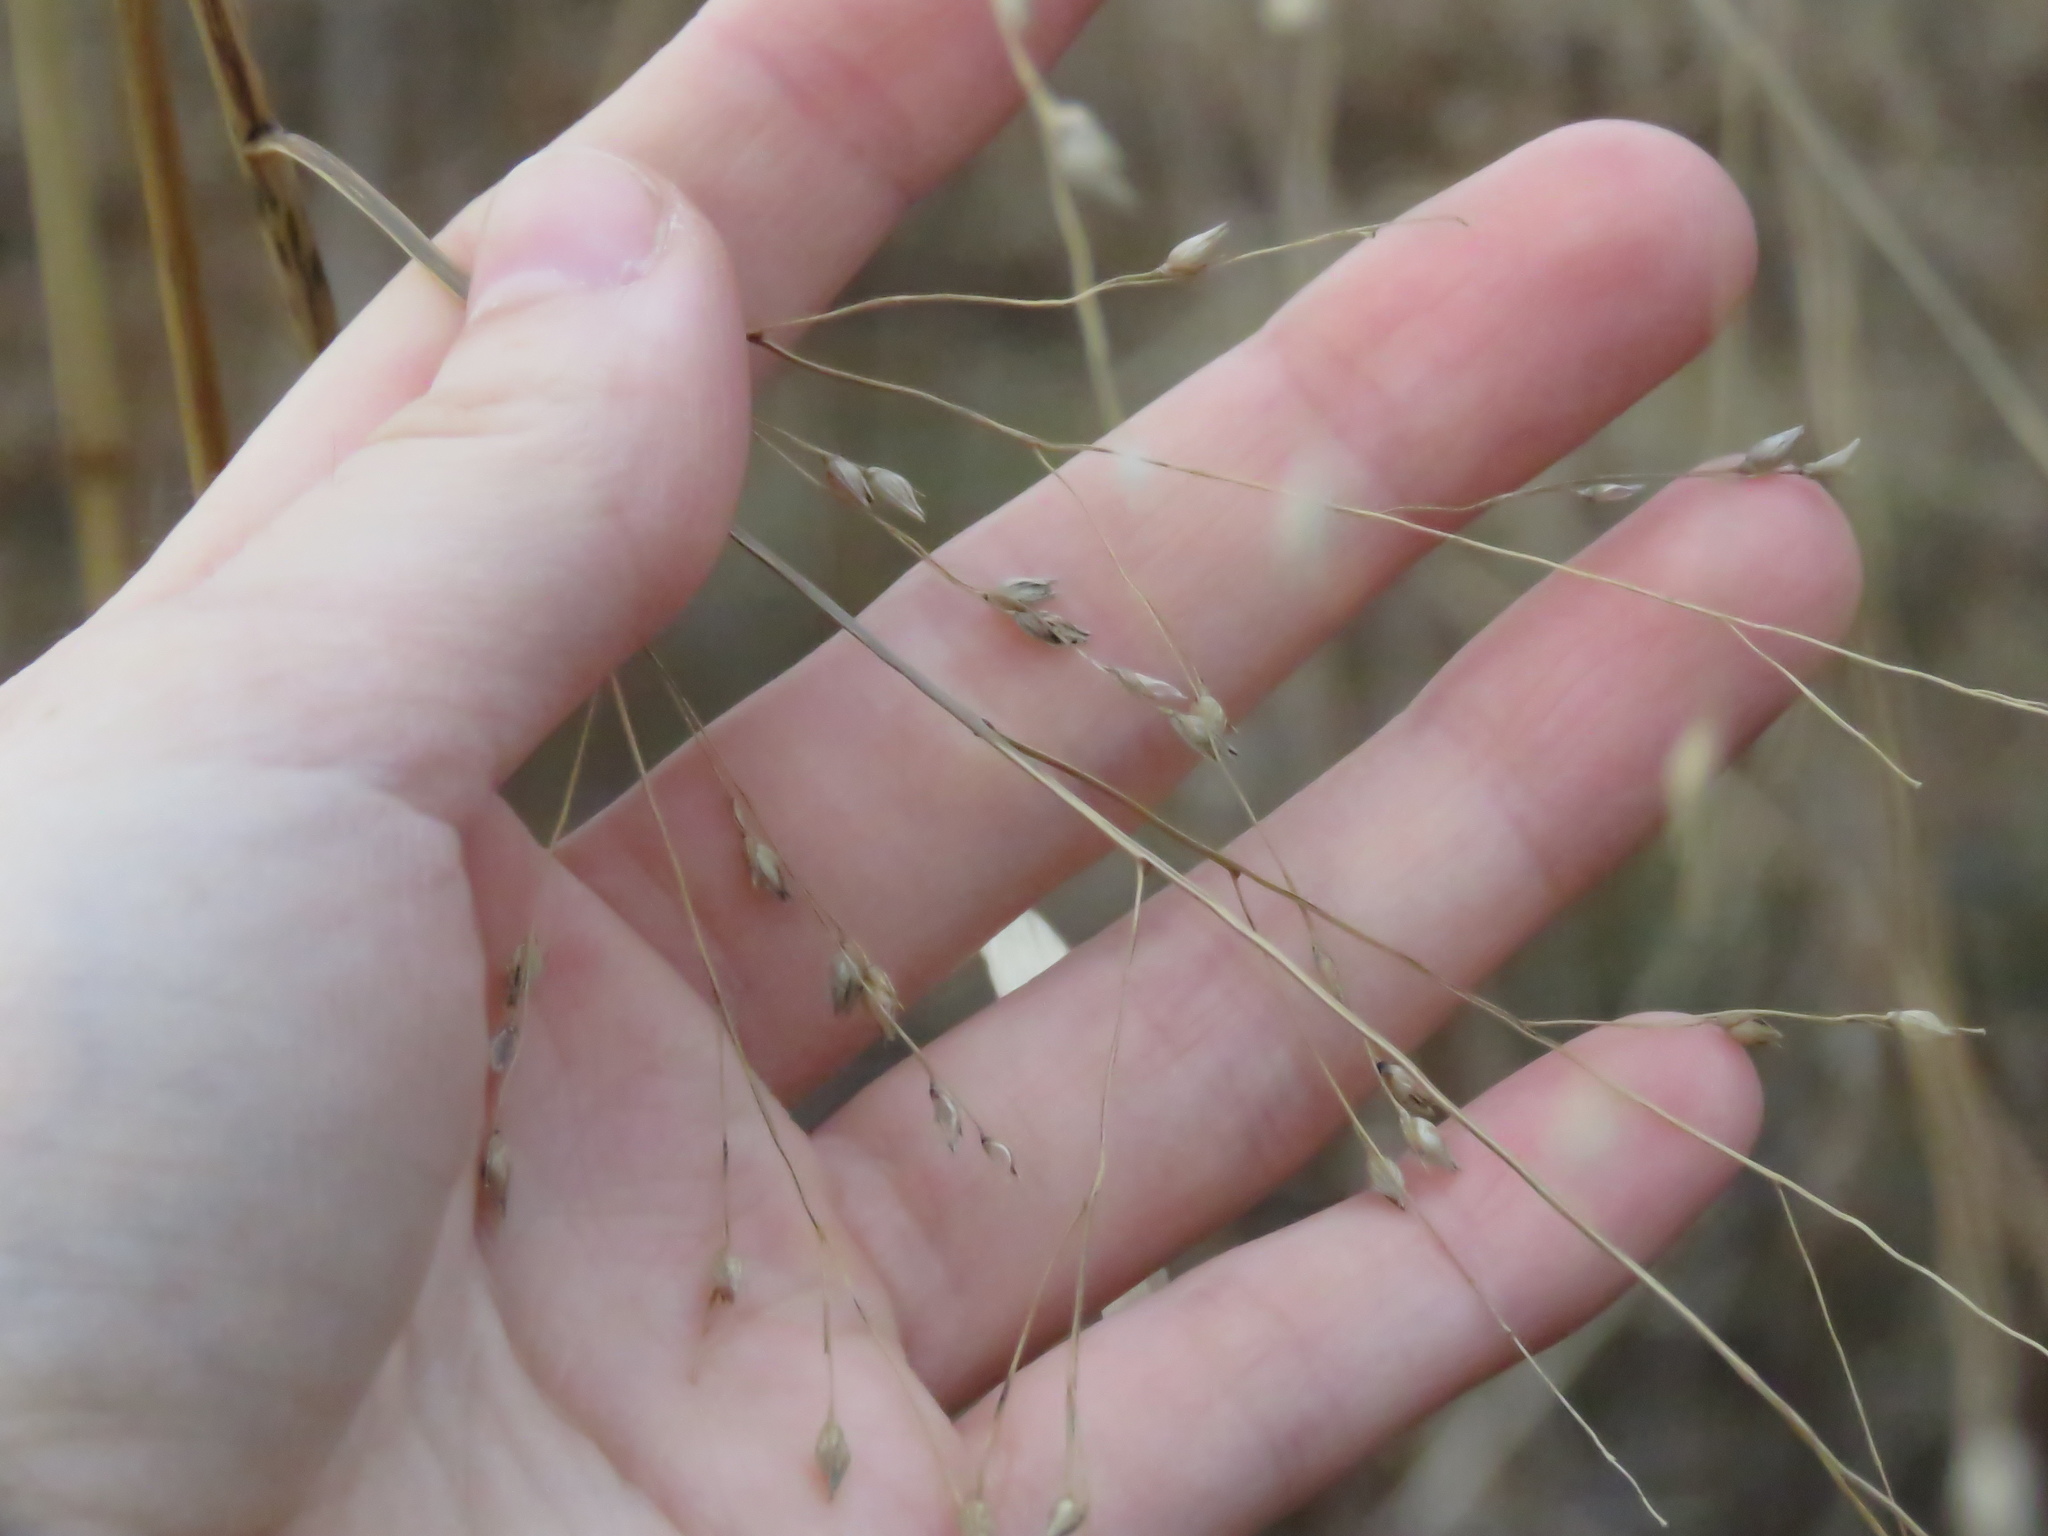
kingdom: Plantae
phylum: Tracheophyta
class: Liliopsida
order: Poales
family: Poaceae
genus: Panicum
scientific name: Panicum virgatum
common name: Switchgrass
